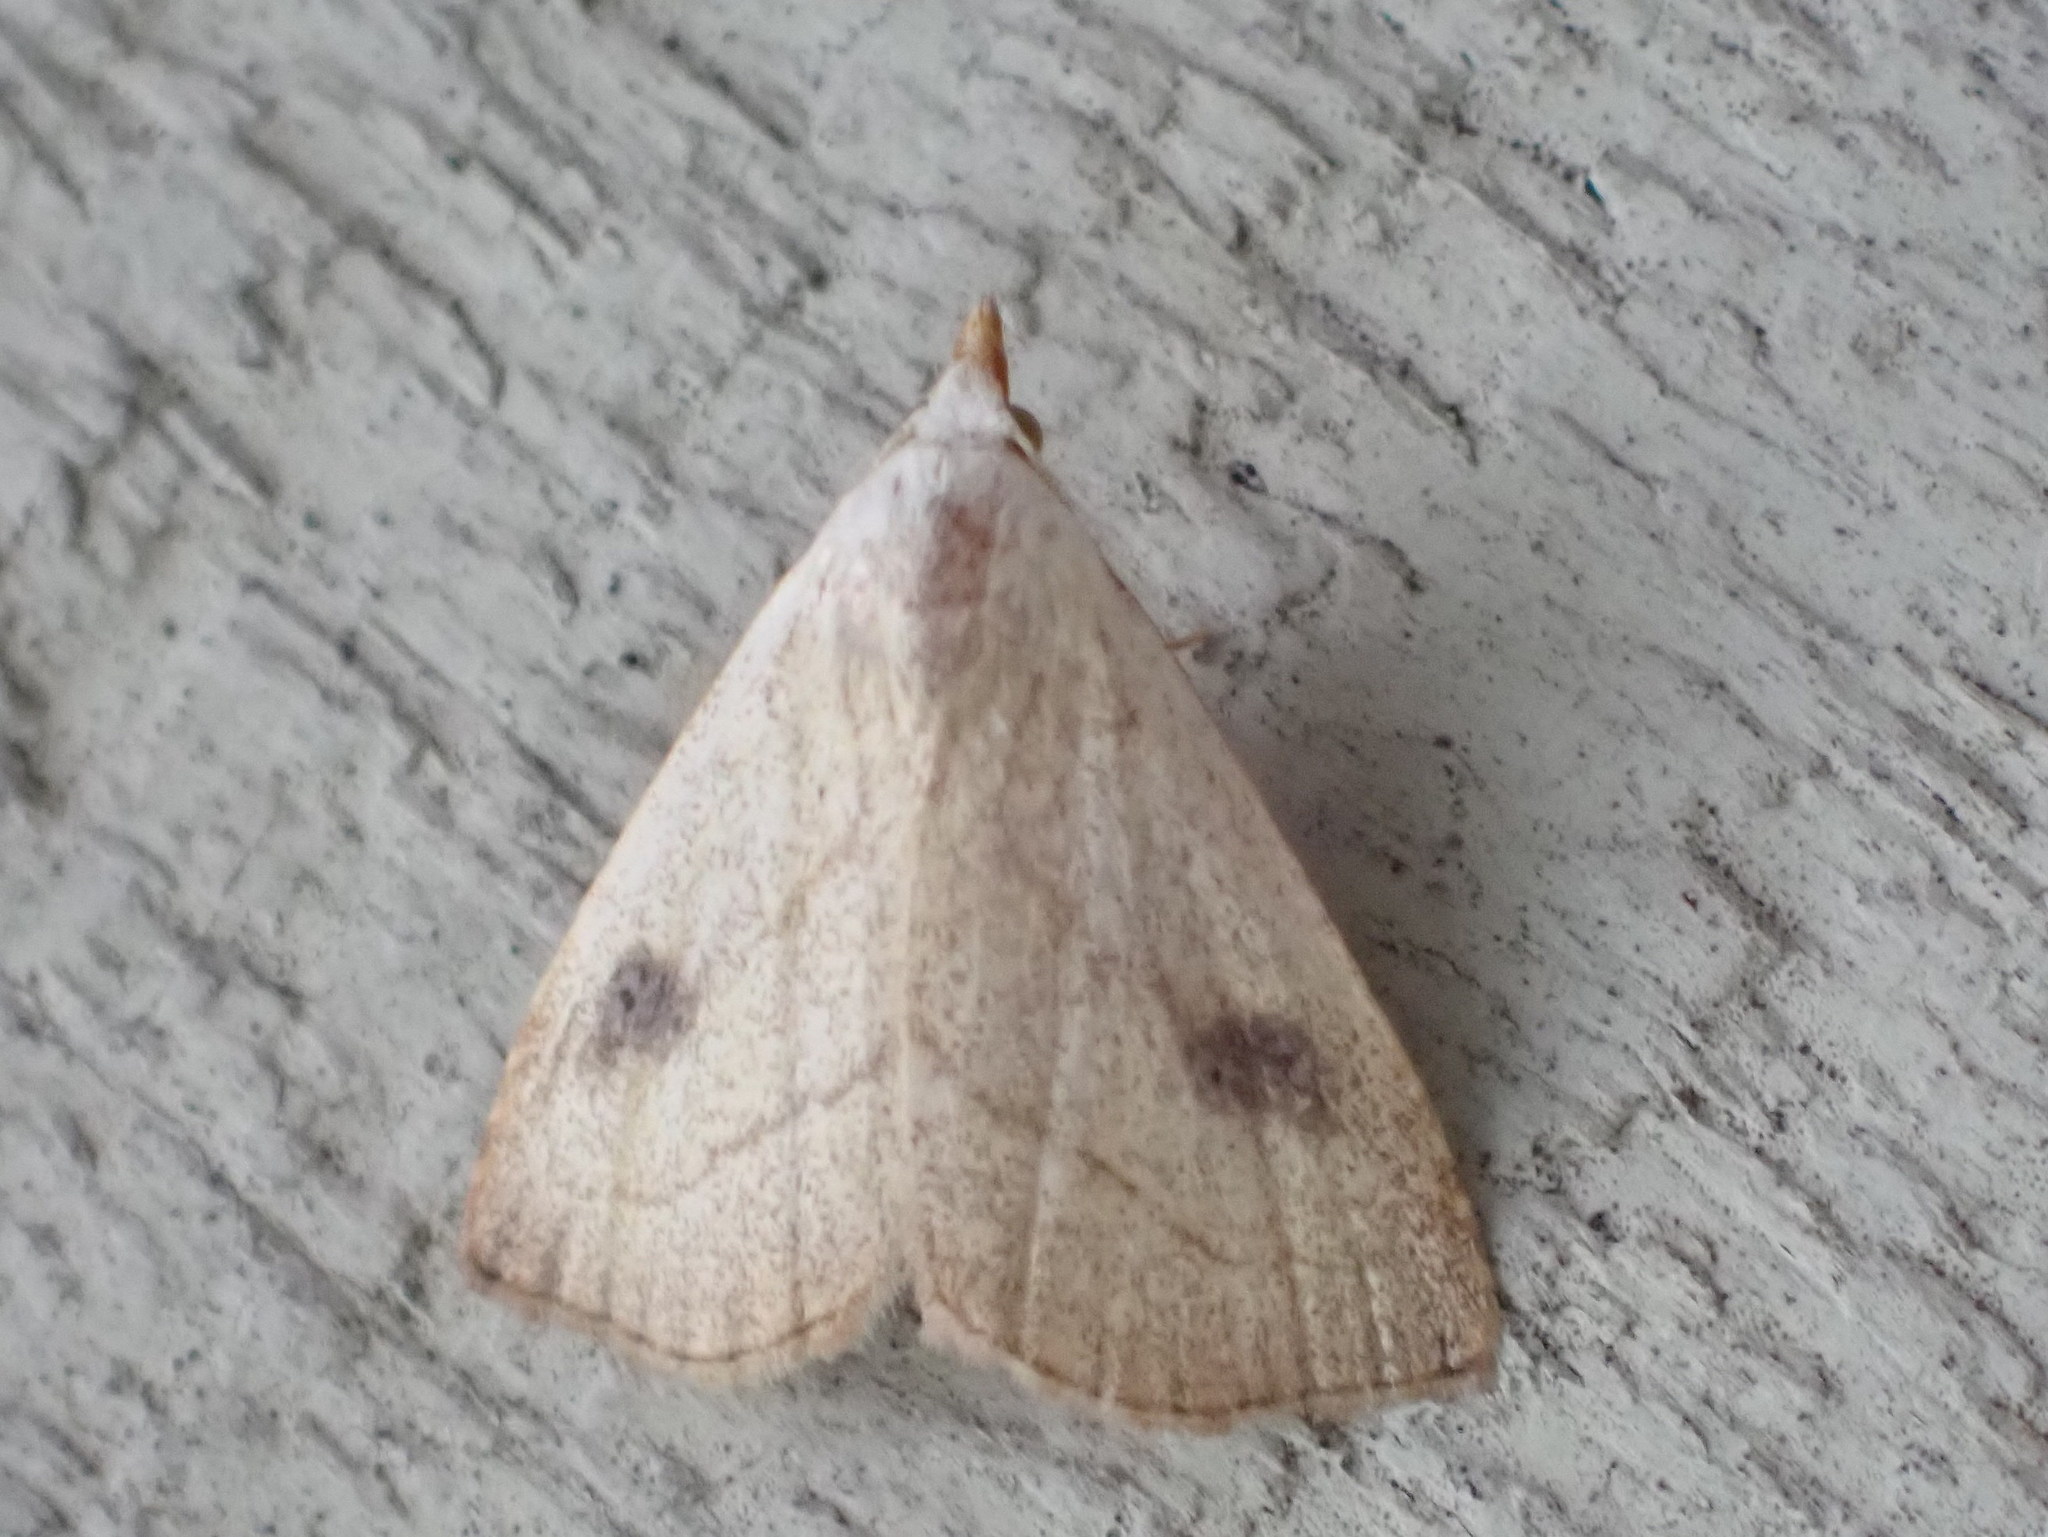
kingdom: Animalia
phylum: Arthropoda
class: Insecta
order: Lepidoptera
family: Erebidae
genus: Rivula
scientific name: Rivula propinqualis
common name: Spotted grass moth
